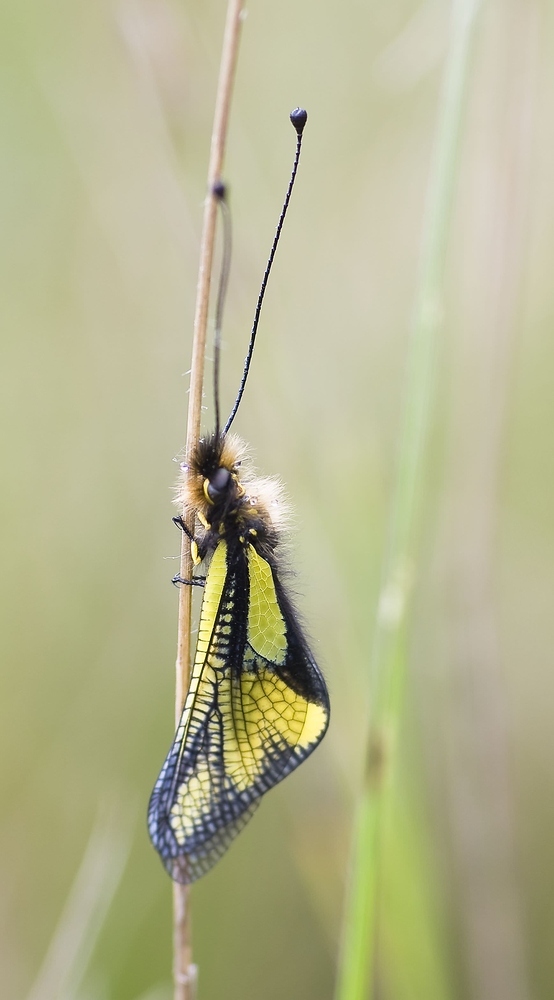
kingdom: Animalia
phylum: Arthropoda
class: Insecta
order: Neuroptera
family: Ascalaphidae
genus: Libelloides
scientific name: Libelloides coccajus
